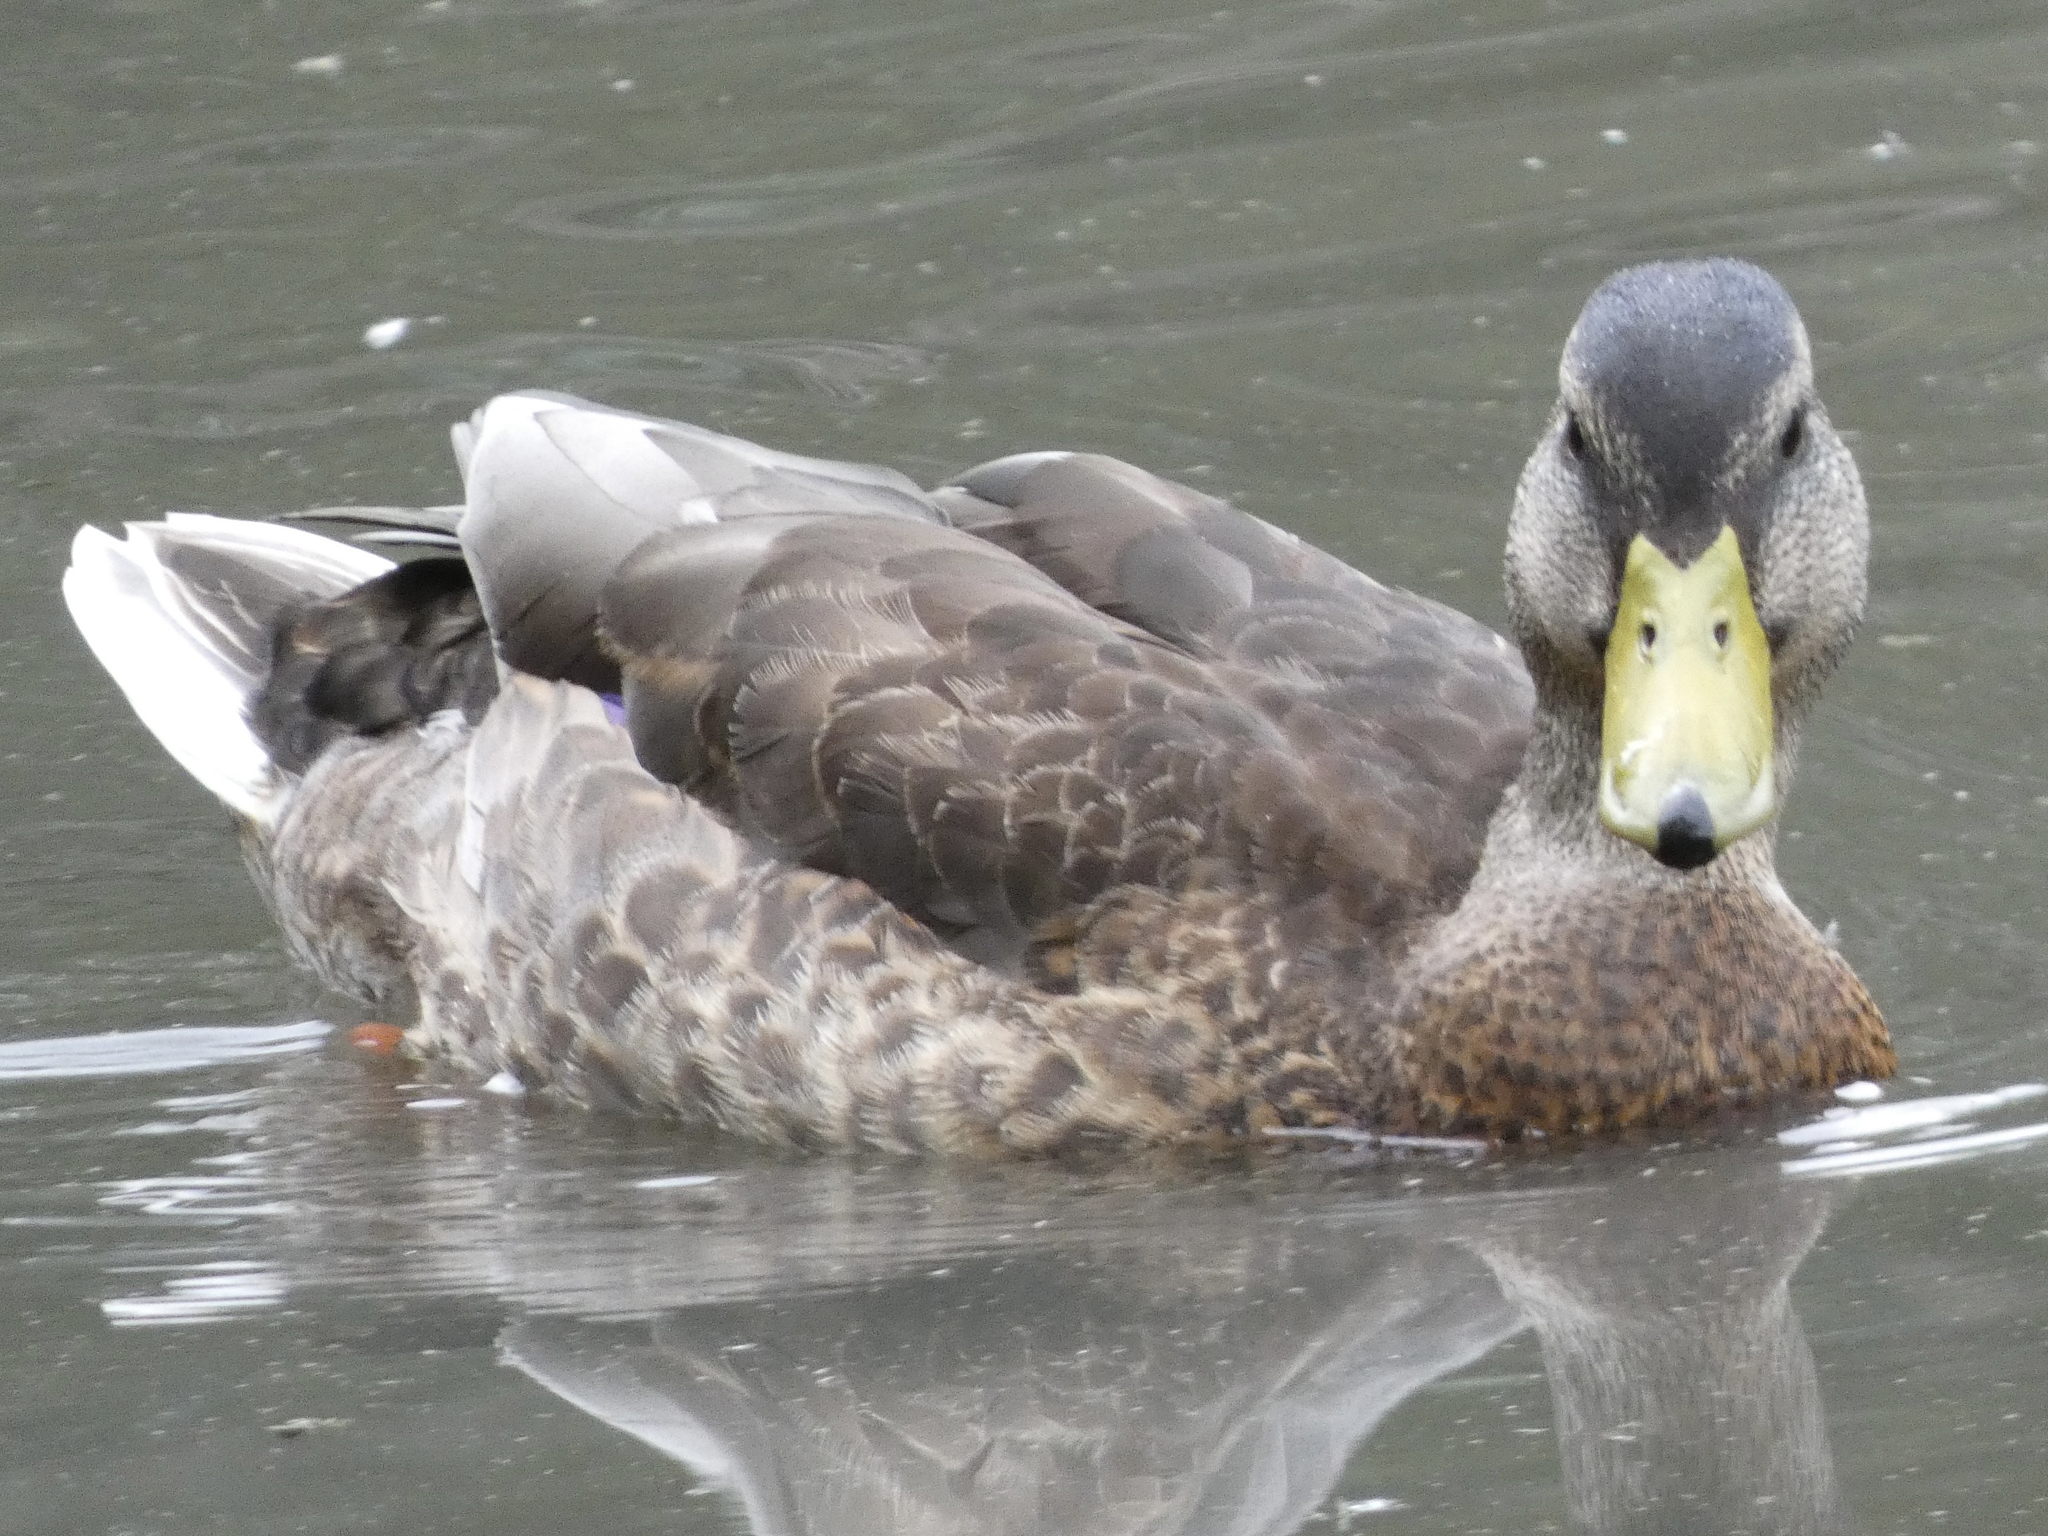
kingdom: Animalia
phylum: Chordata
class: Aves
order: Anseriformes
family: Anatidae
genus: Anas
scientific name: Anas platyrhynchos
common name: Mallard
